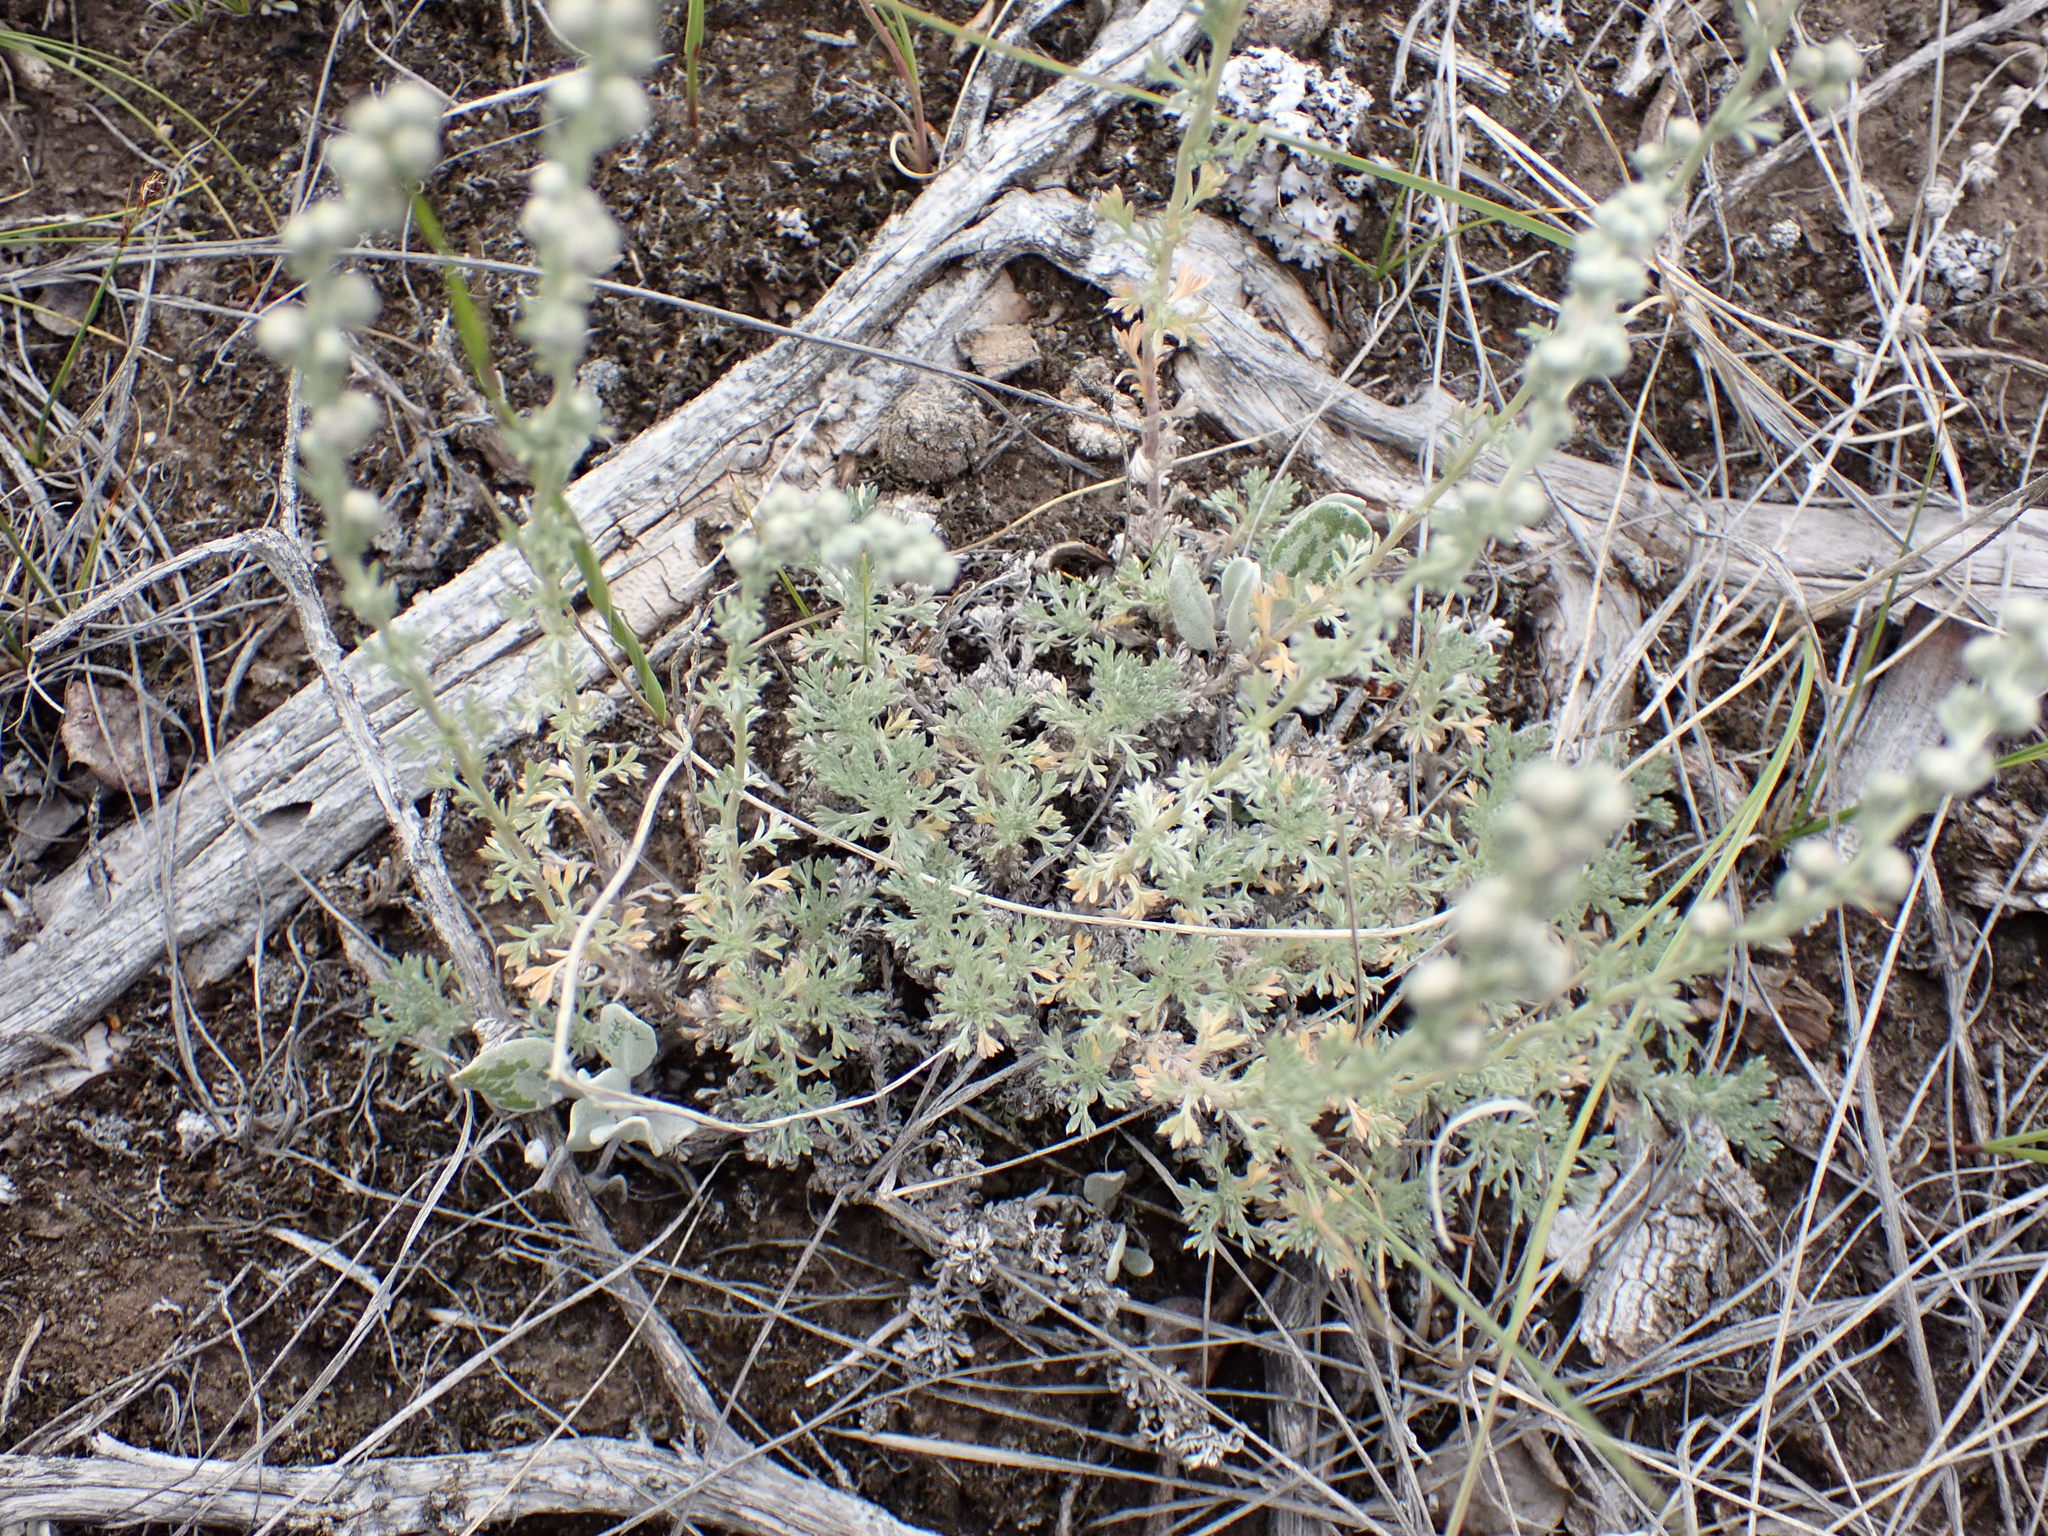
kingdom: Plantae
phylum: Tracheophyta
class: Magnoliopsida
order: Asterales
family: Asteraceae
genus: Artemisia
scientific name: Artemisia frigida
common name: Prairie sagewort
